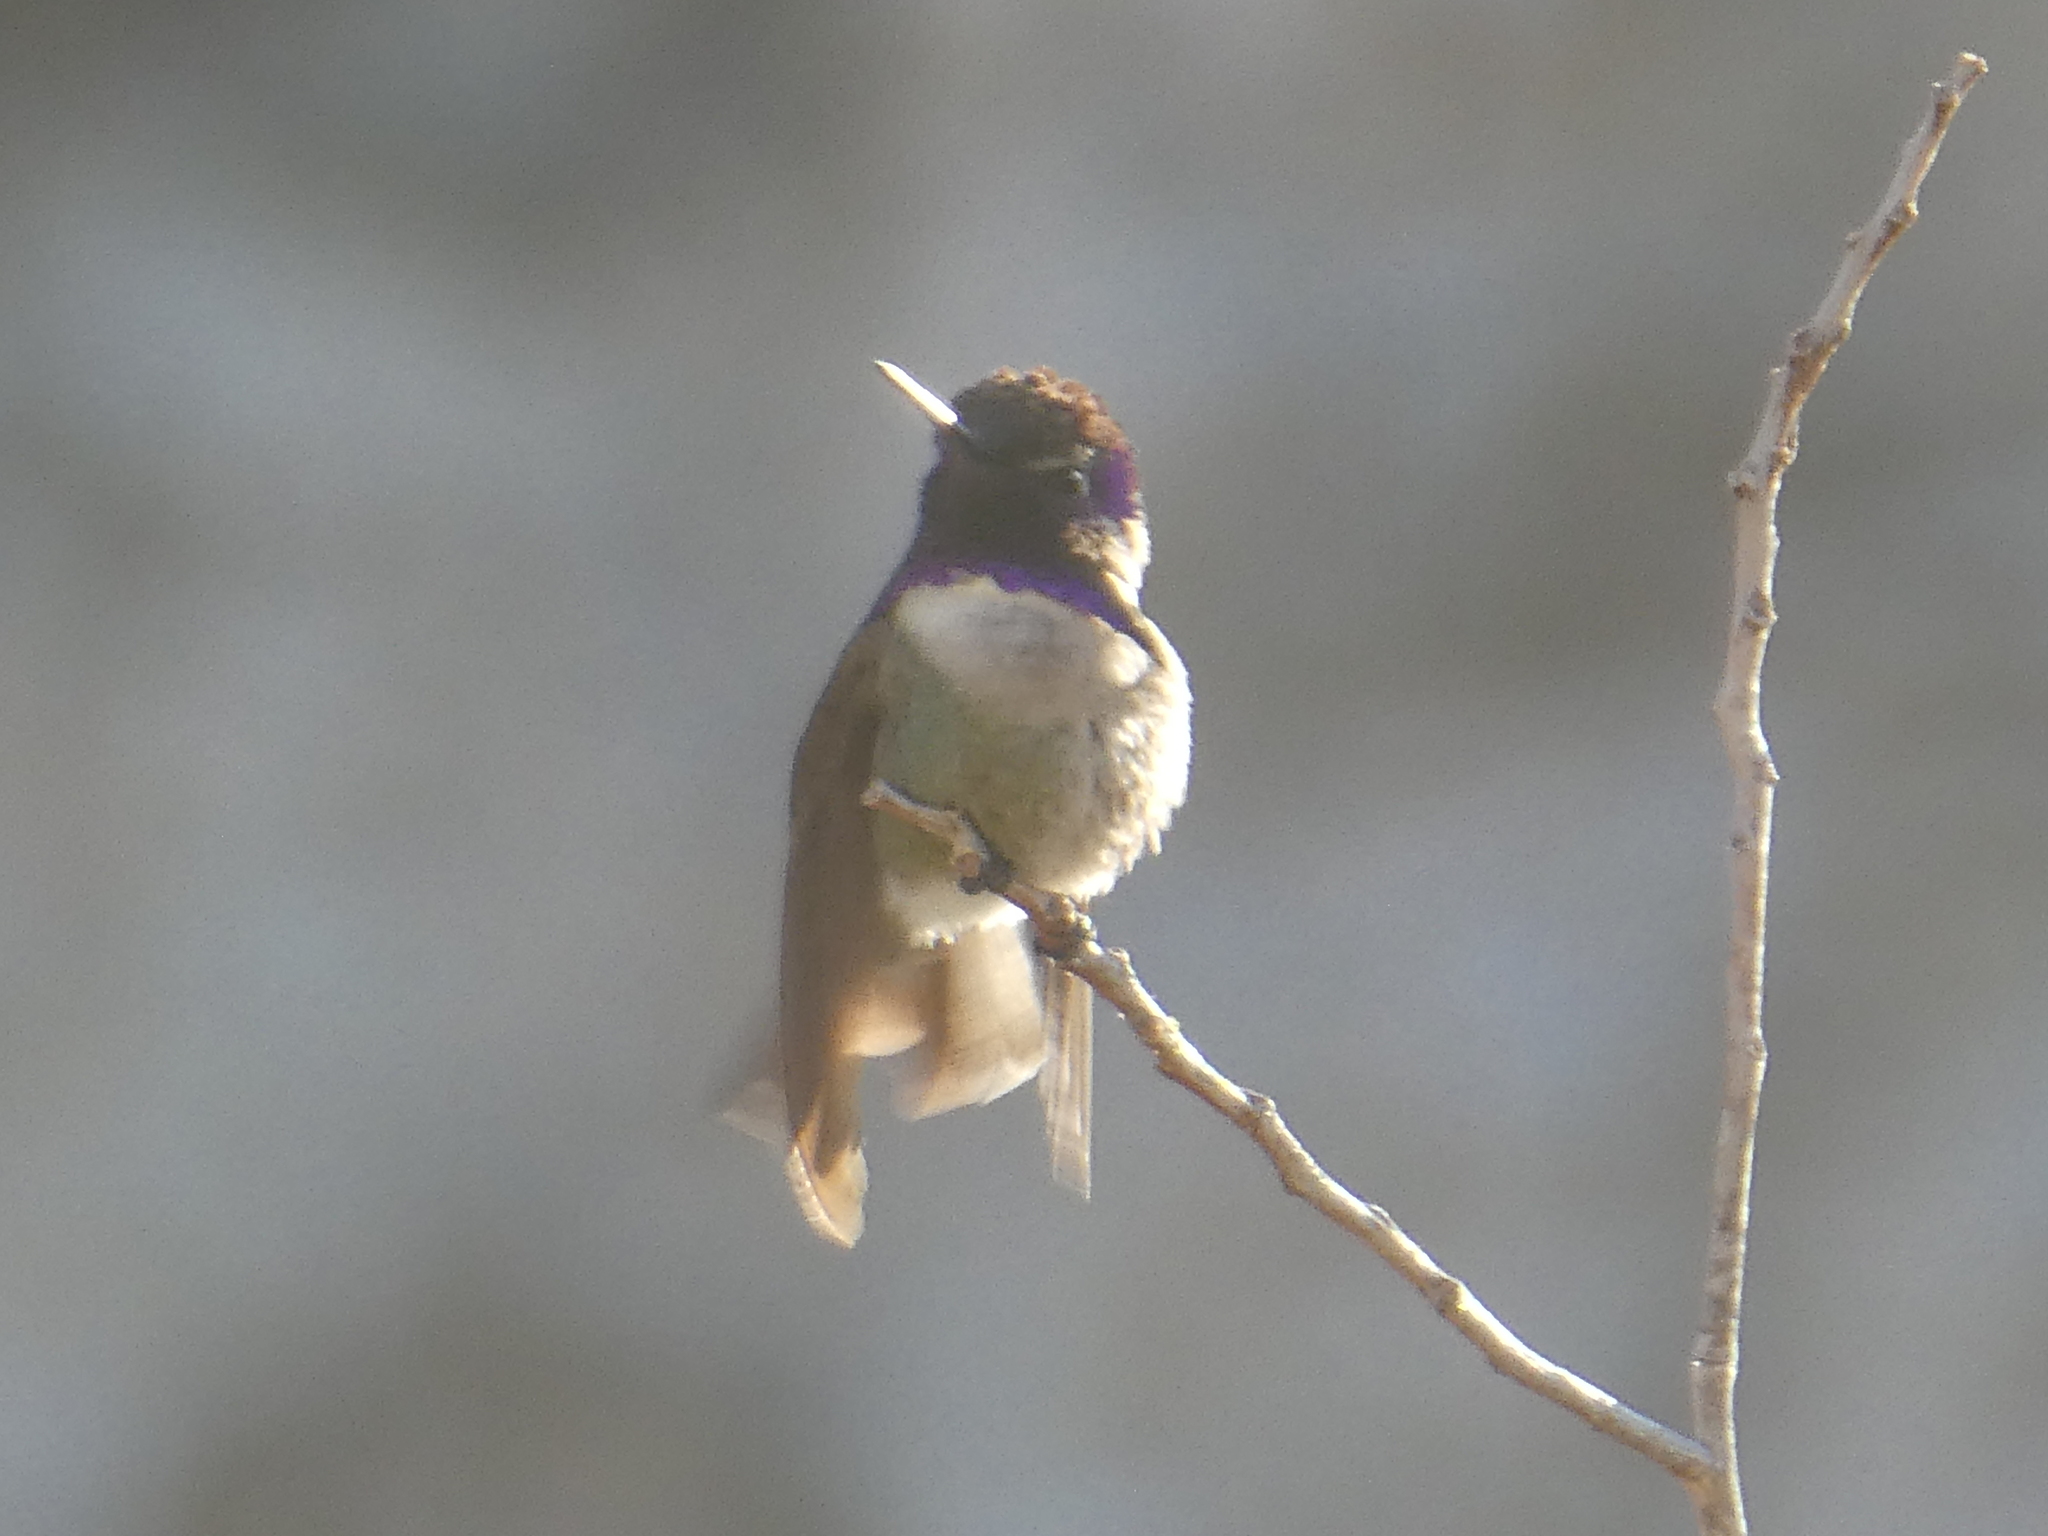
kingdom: Animalia
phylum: Chordata
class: Aves
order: Apodiformes
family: Trochilidae
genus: Calypte
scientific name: Calypte costae
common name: Costa's hummingbird
